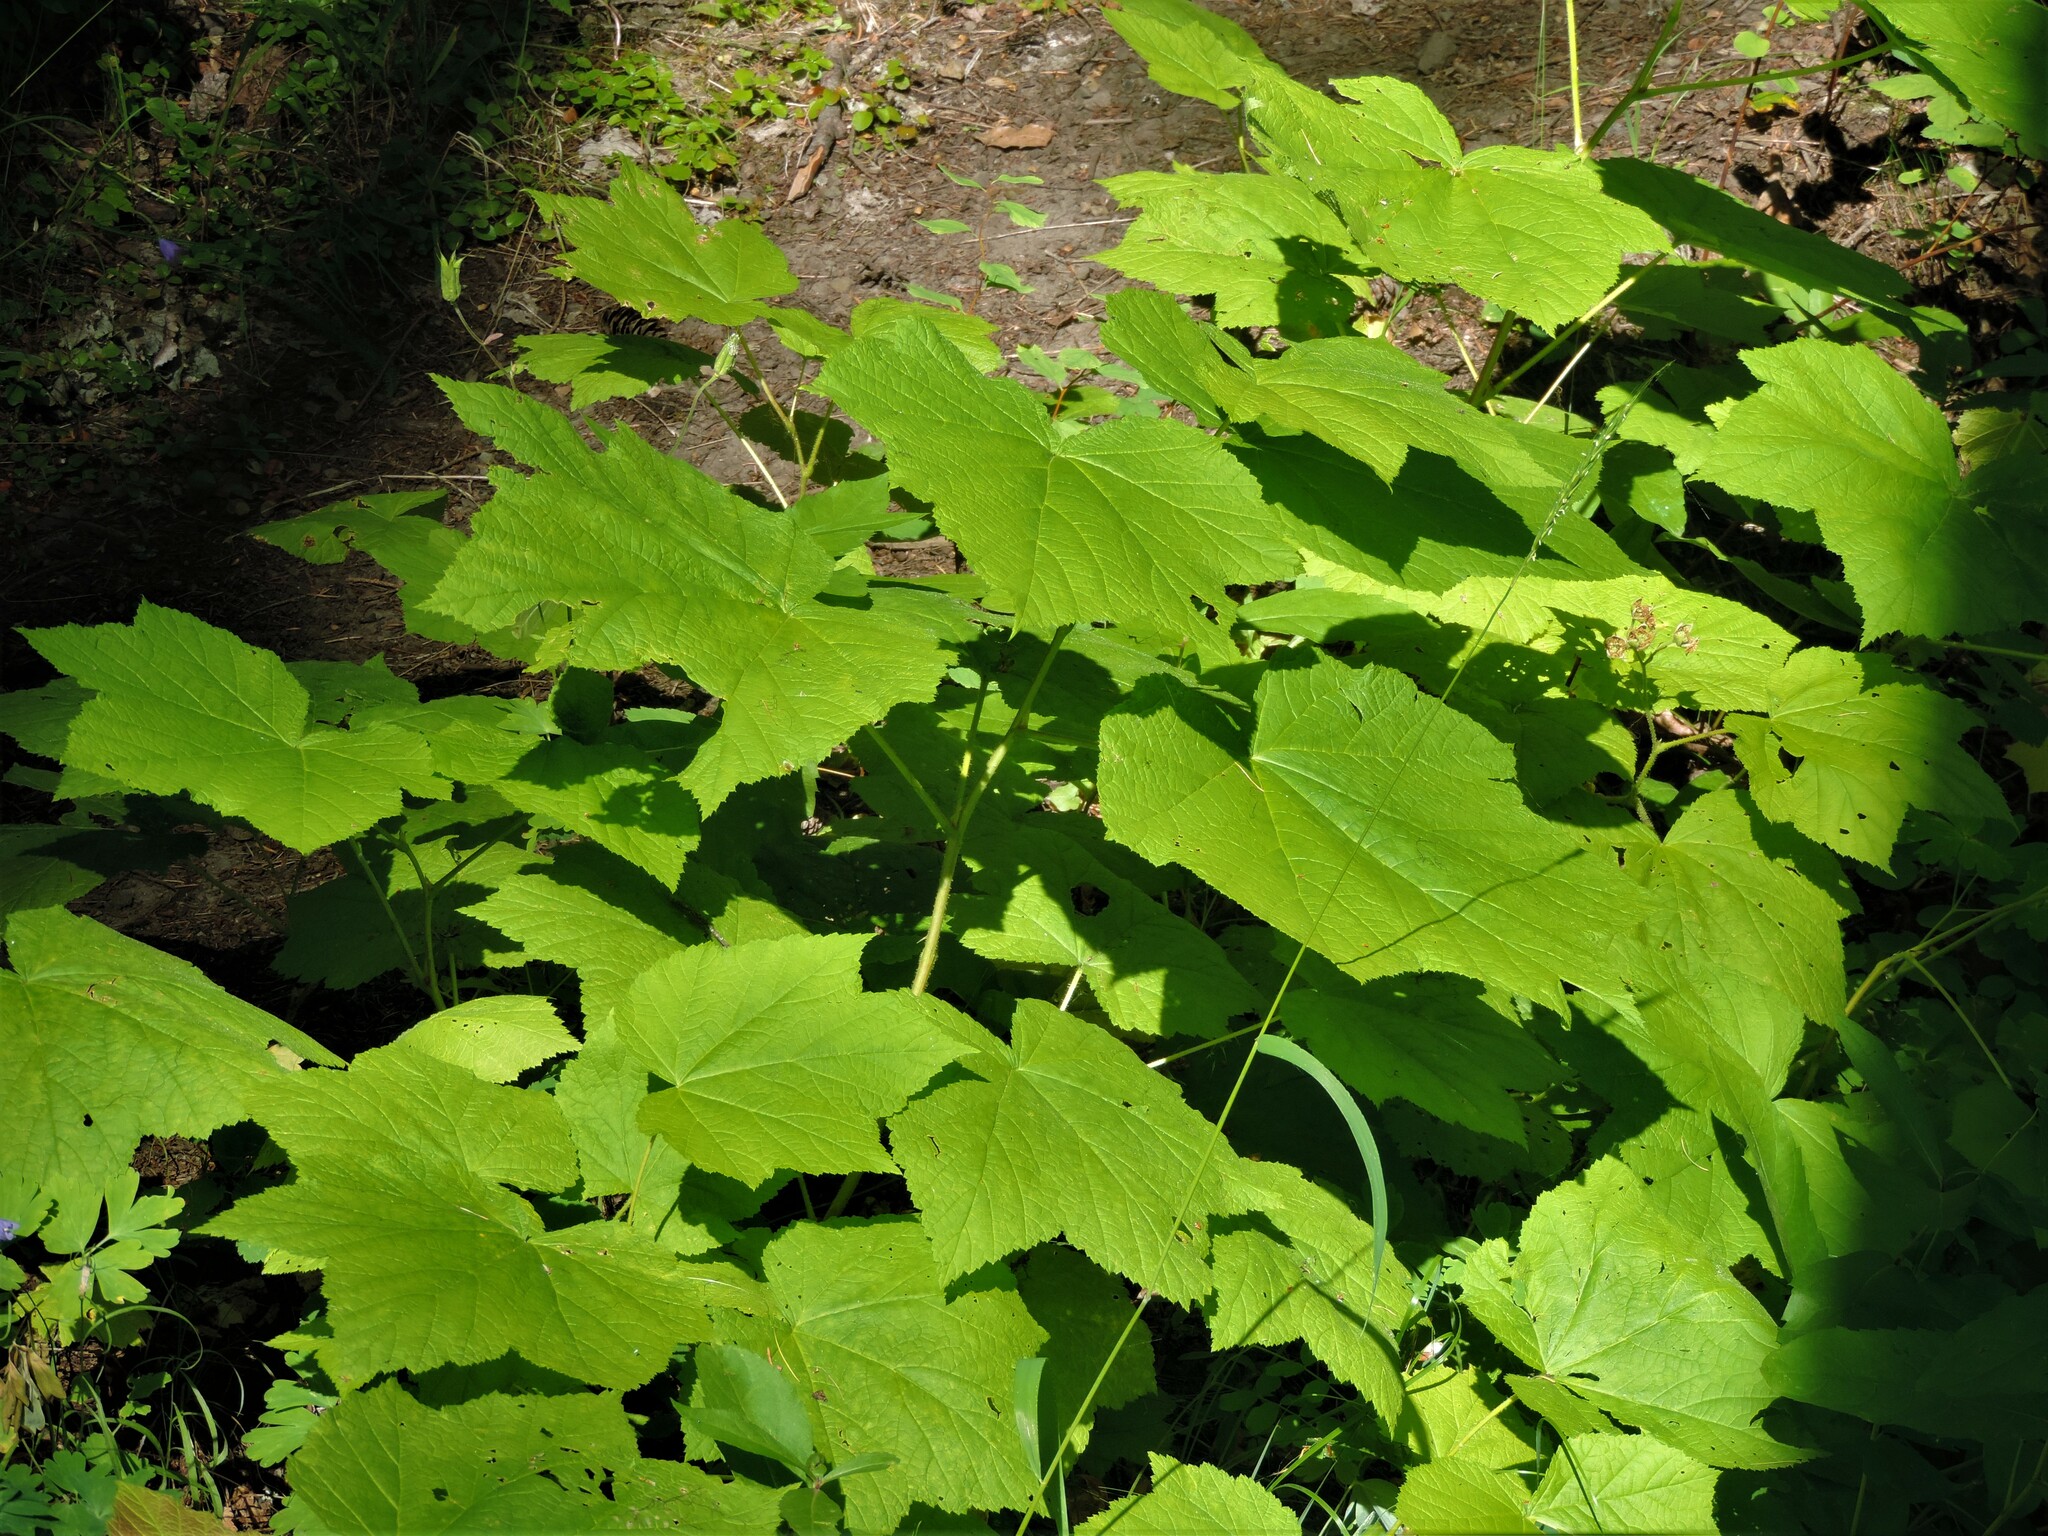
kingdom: Plantae
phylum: Tracheophyta
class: Magnoliopsida
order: Rosales
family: Rosaceae
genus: Rubus
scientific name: Rubus parviflorus
